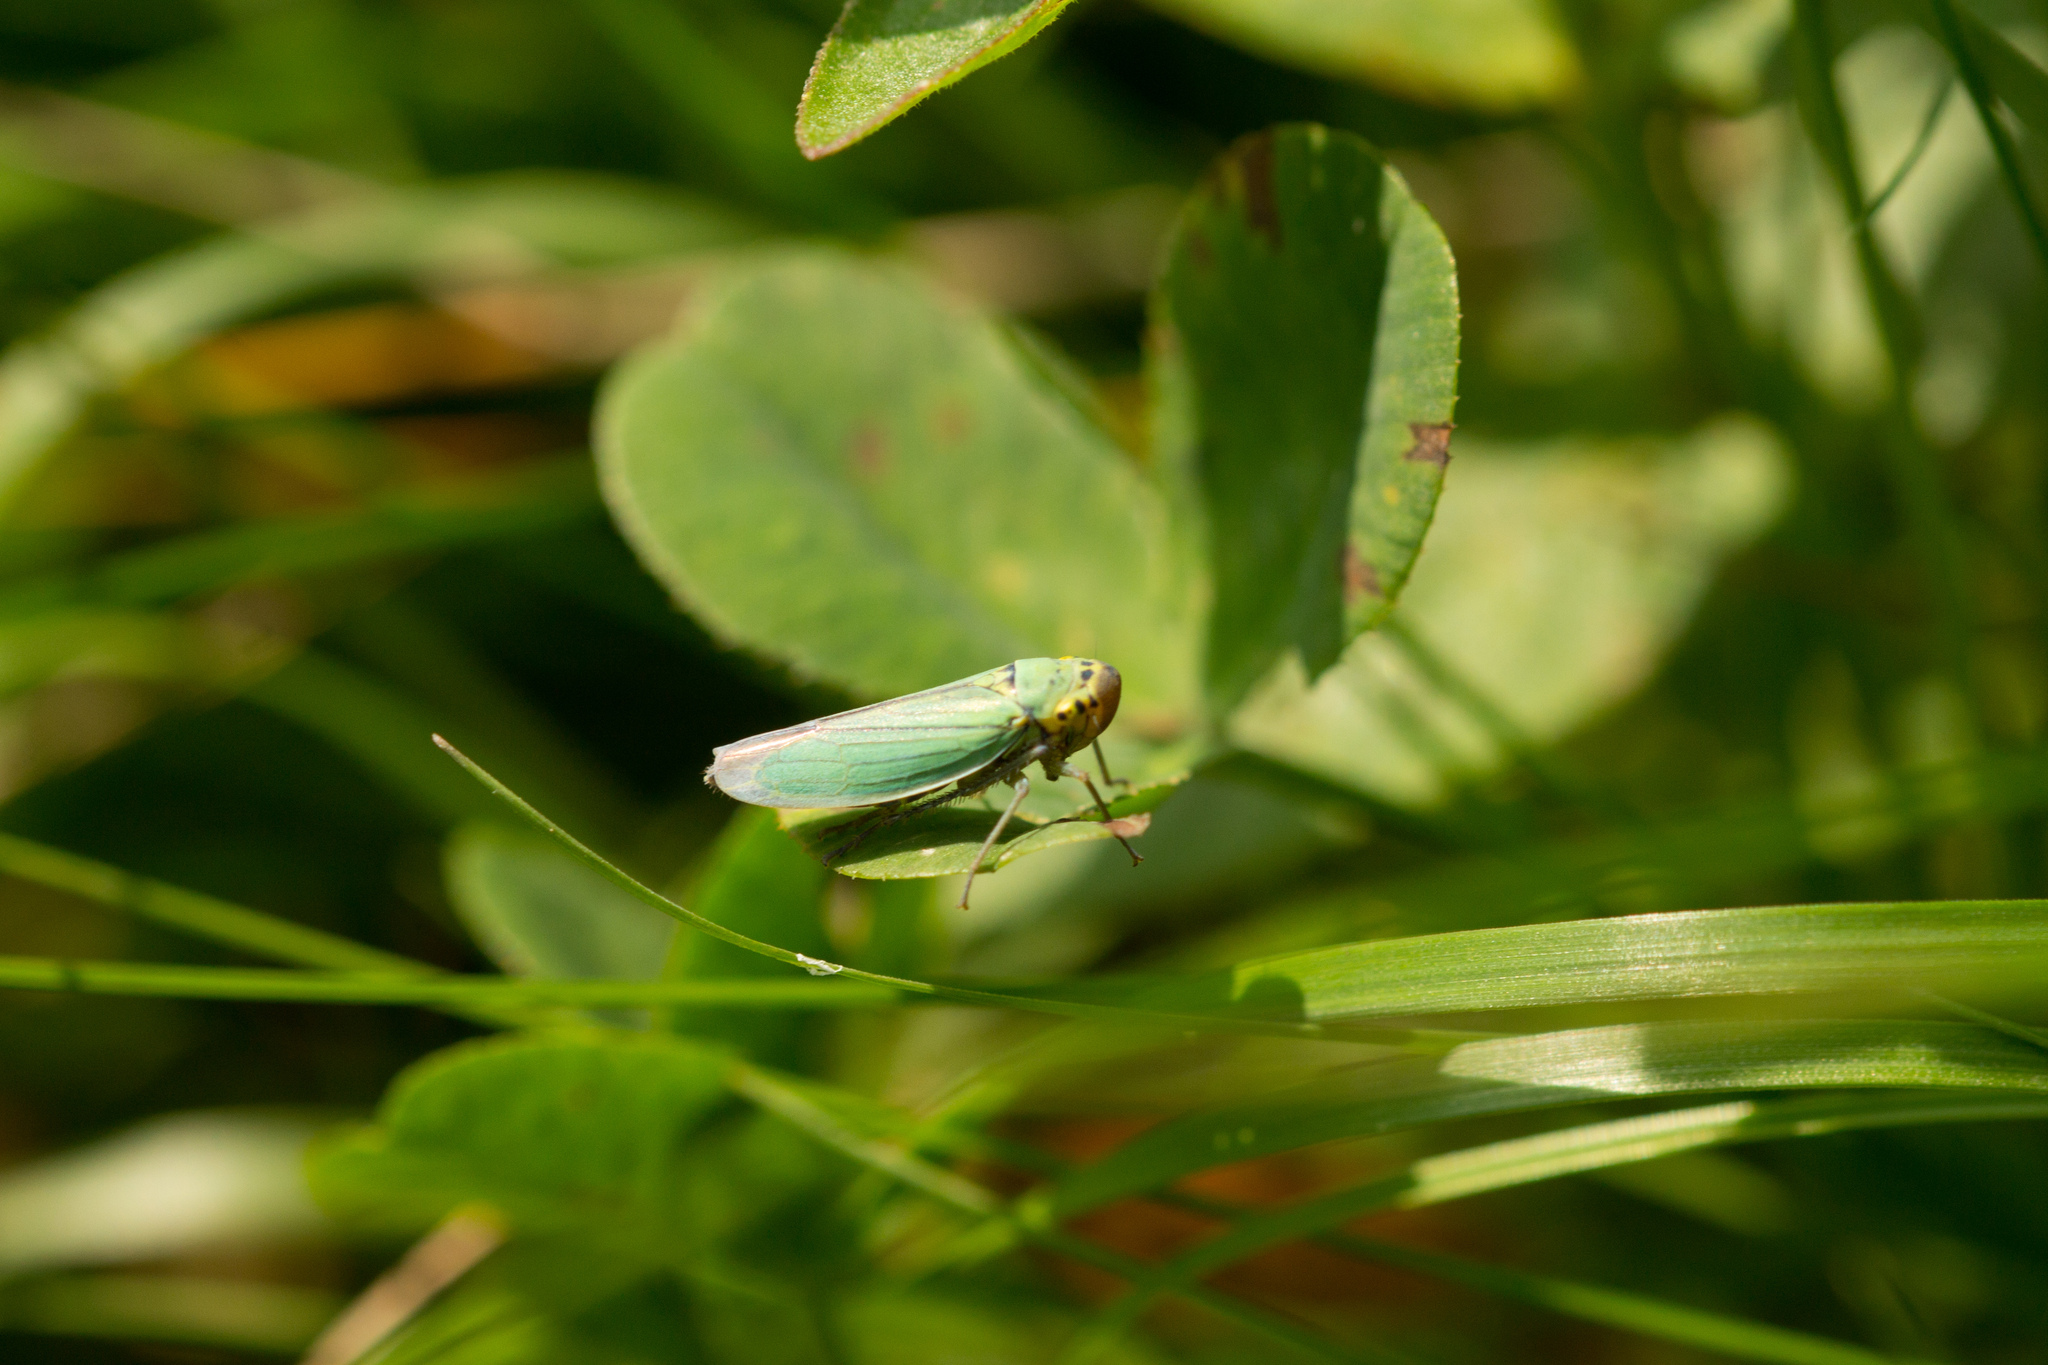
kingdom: Animalia
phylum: Arthropoda
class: Insecta
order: Hemiptera
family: Cicadellidae
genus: Cicadella
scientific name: Cicadella viridis
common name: Leafhopper
